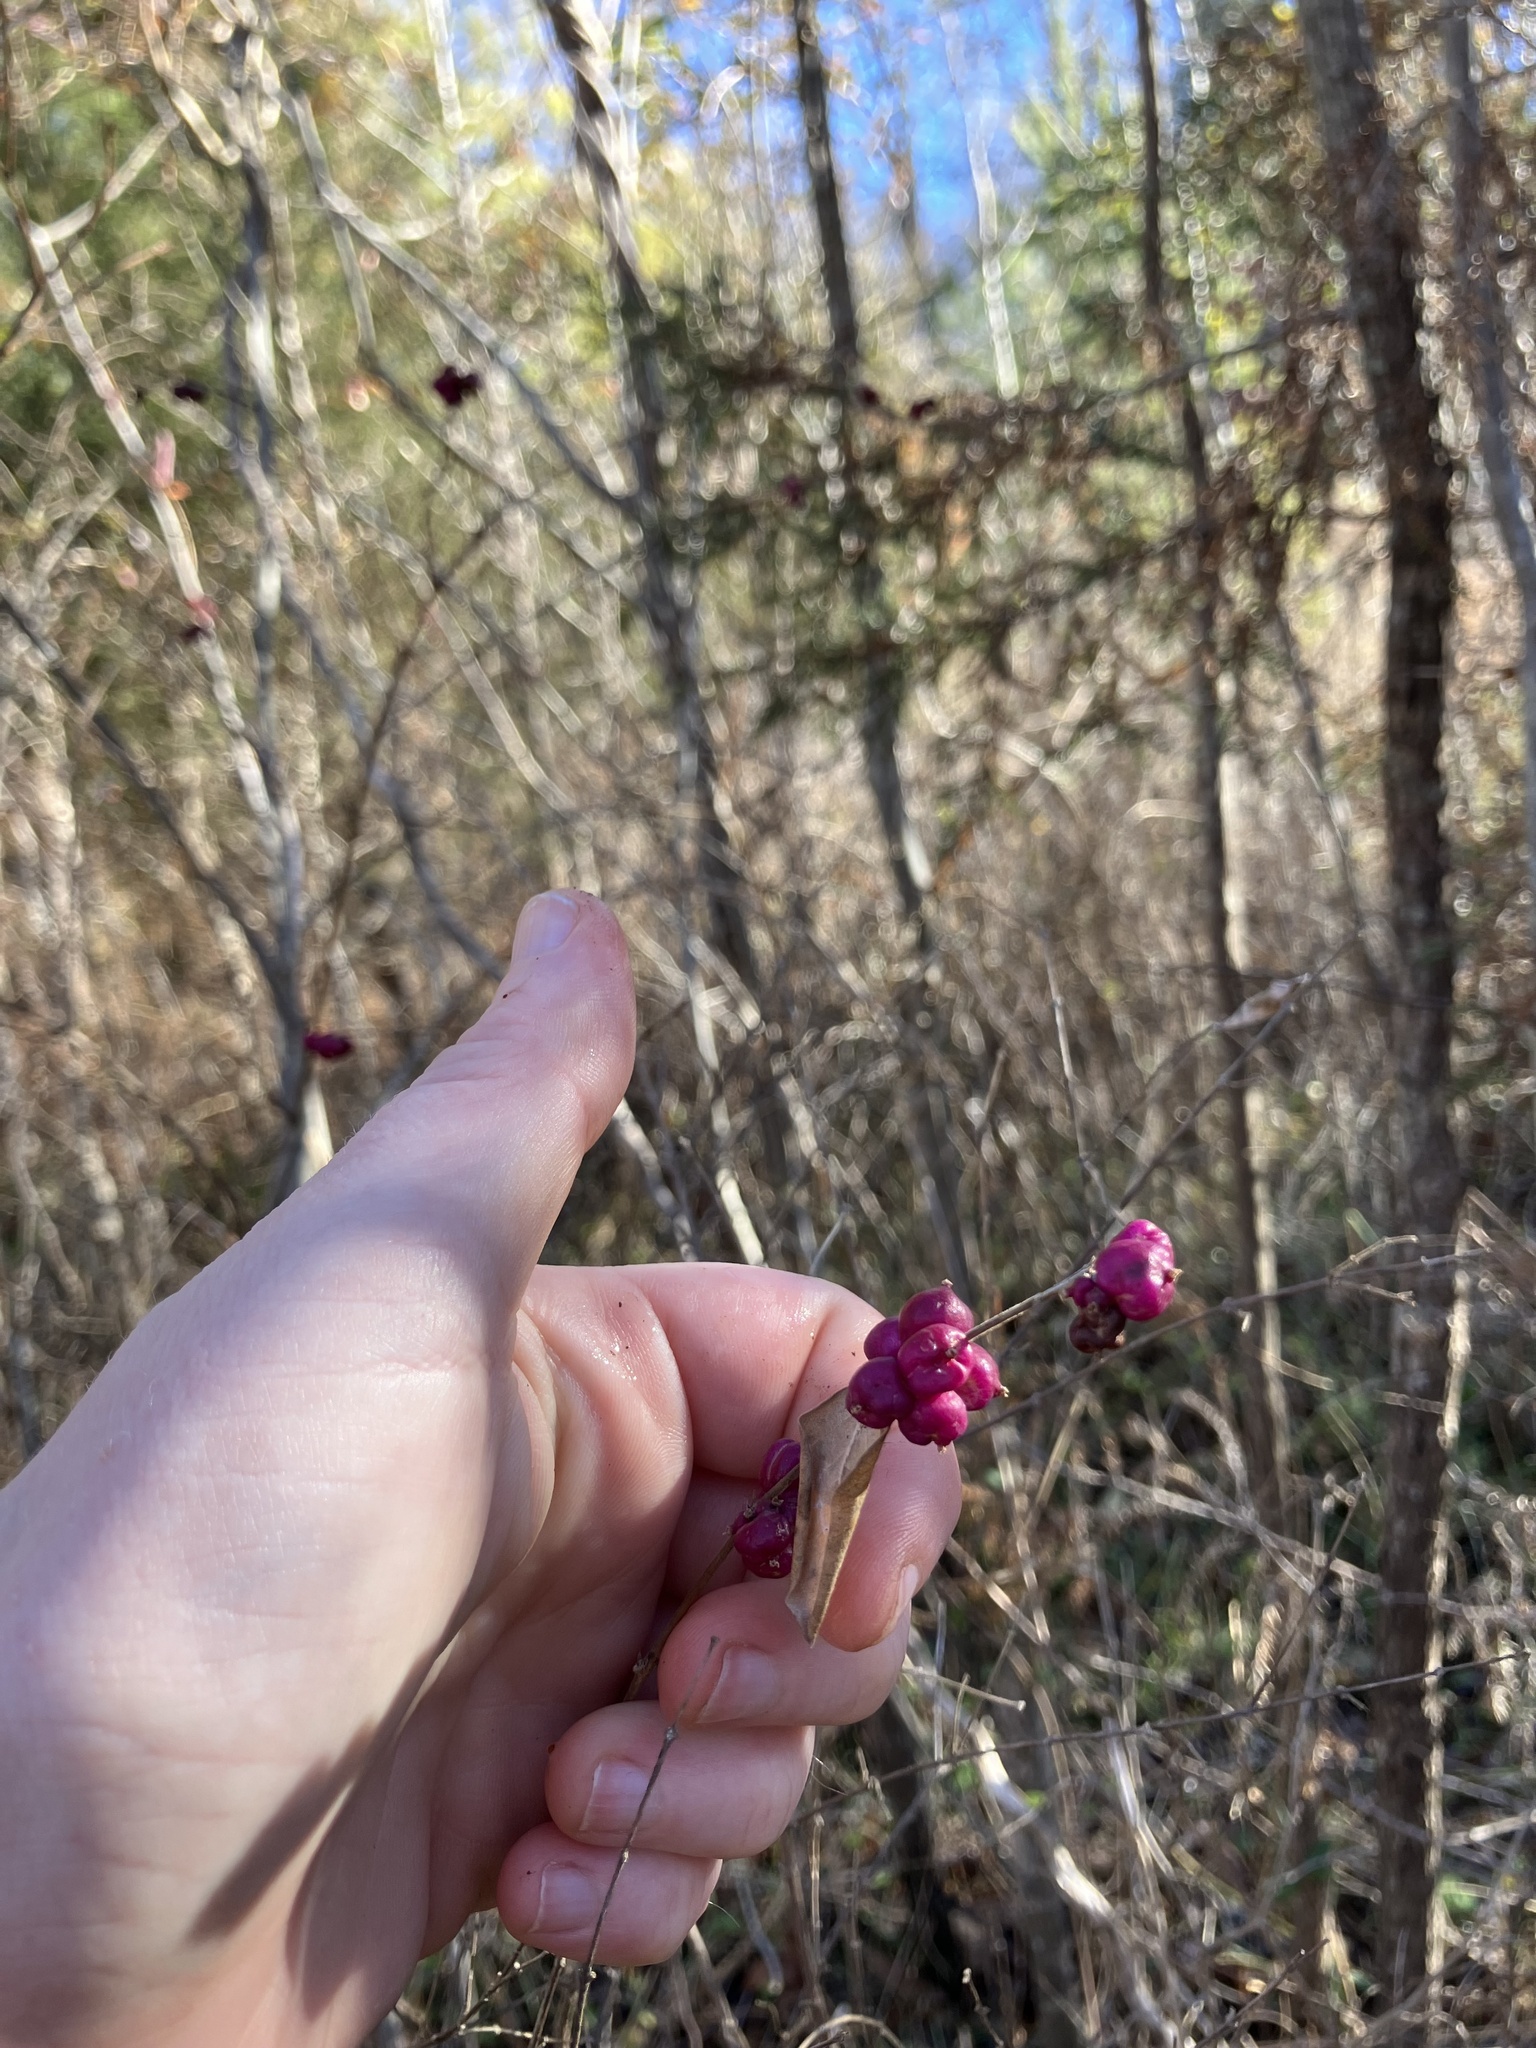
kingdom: Plantae
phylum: Tracheophyta
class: Magnoliopsida
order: Dipsacales
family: Caprifoliaceae
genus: Symphoricarpos
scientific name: Symphoricarpos orbiculatus
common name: Coralberry
